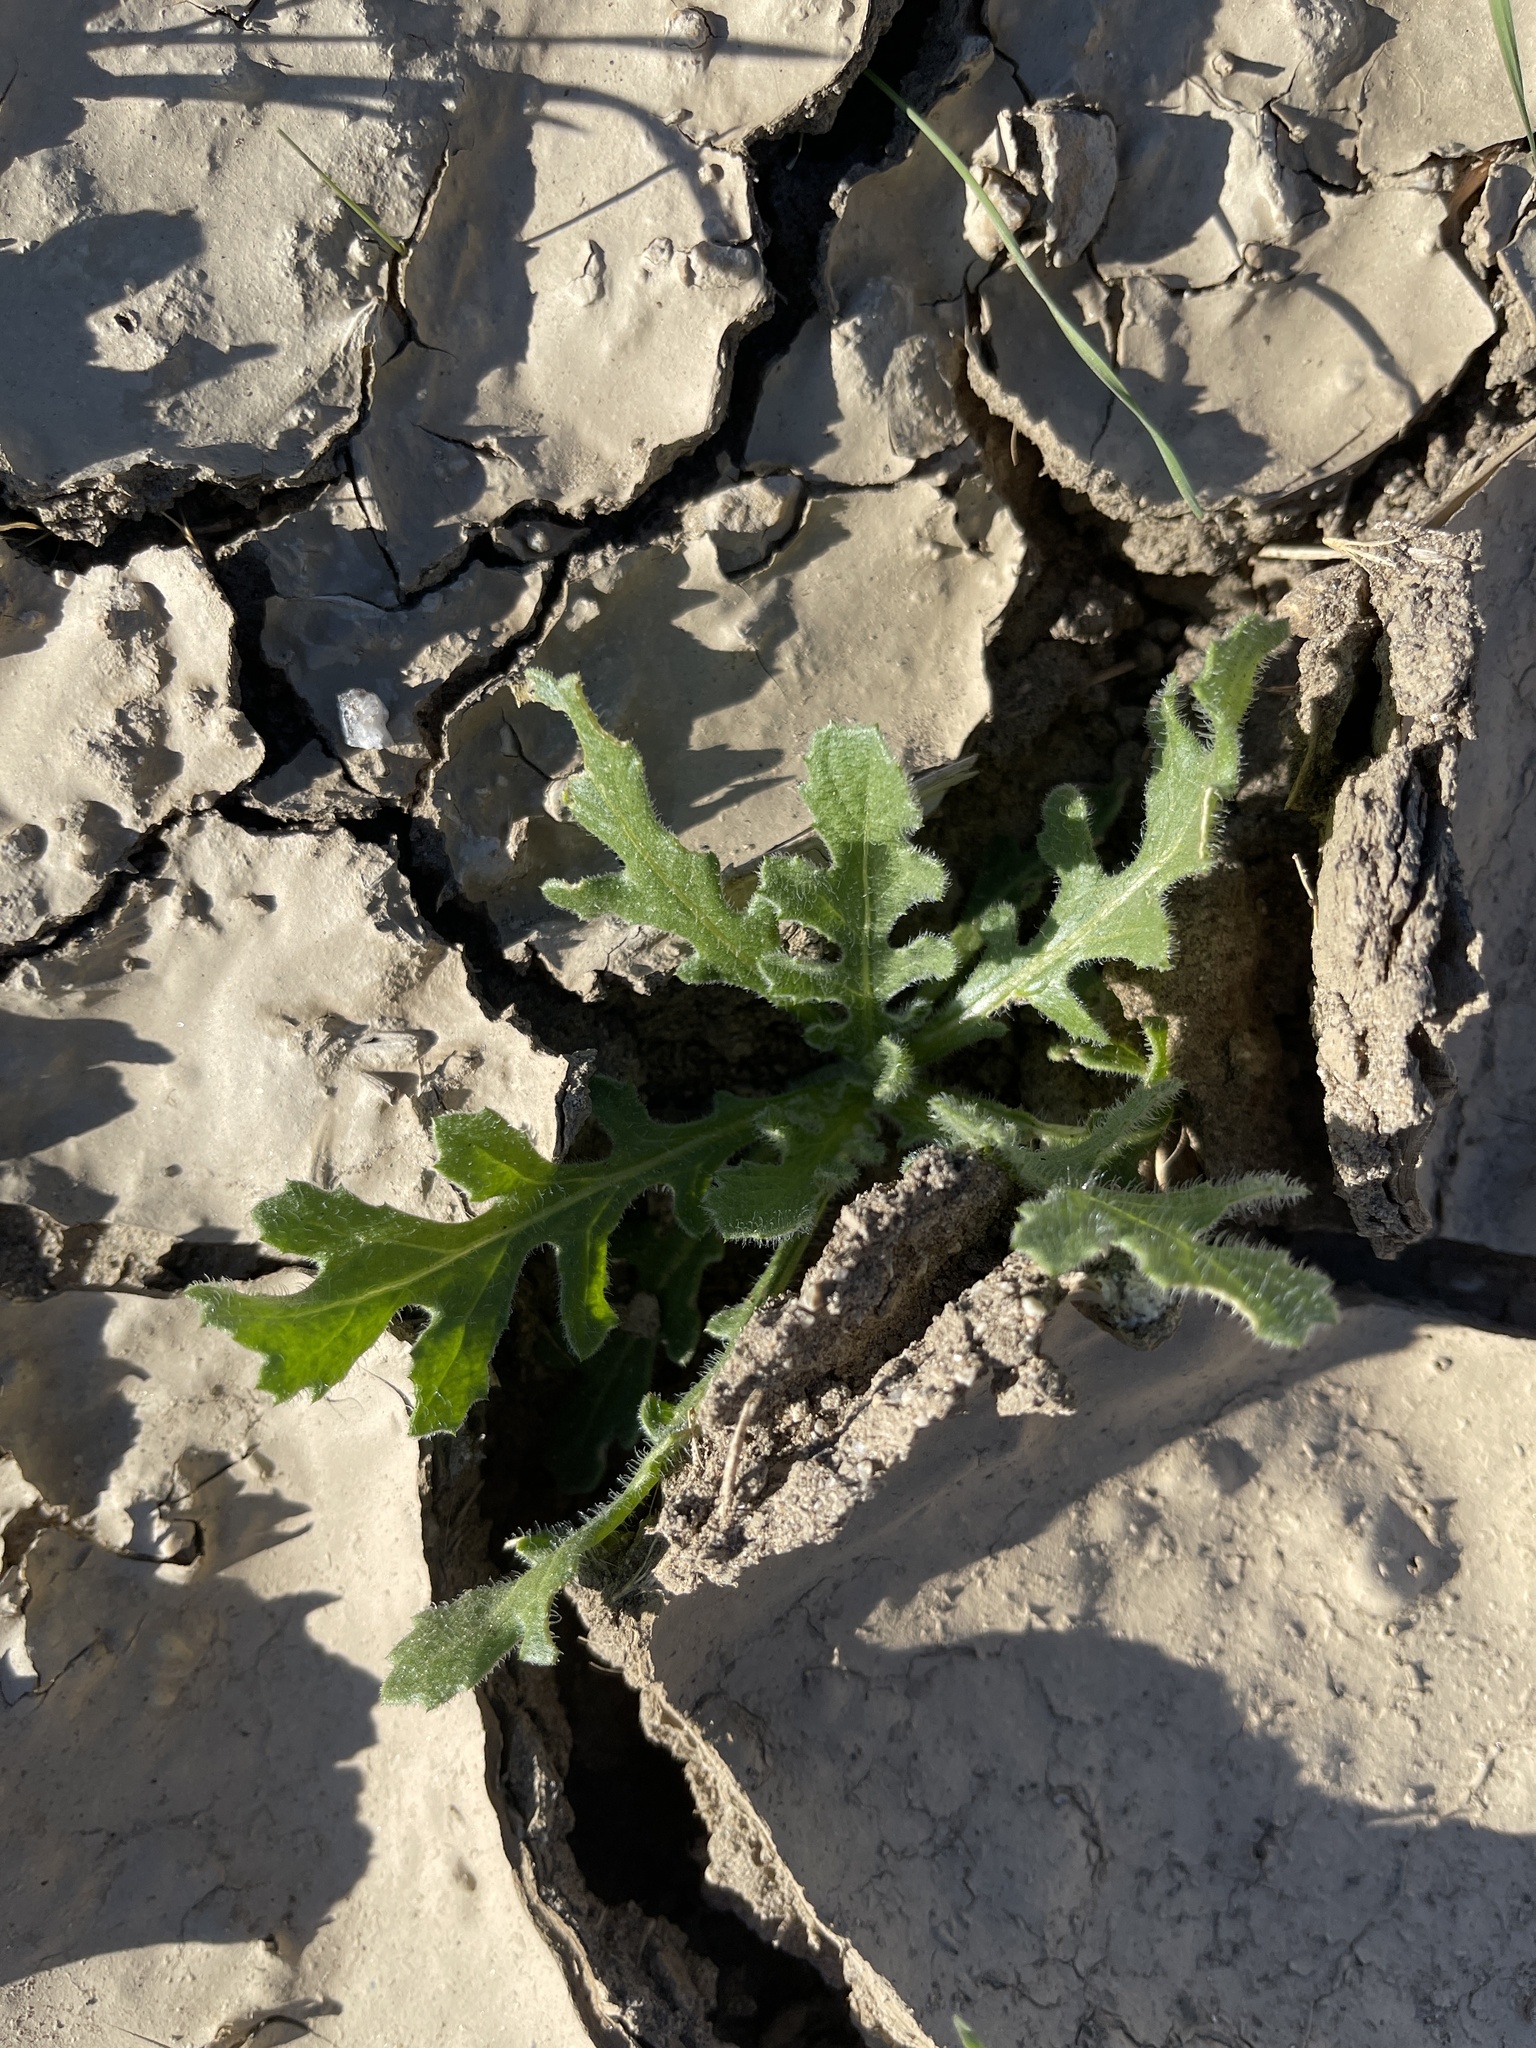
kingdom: Plantae
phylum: Tracheophyta
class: Magnoliopsida
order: Asterales
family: Asteraceae
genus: Volutaria
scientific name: Volutaria tubuliflora
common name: Desert knapweed
